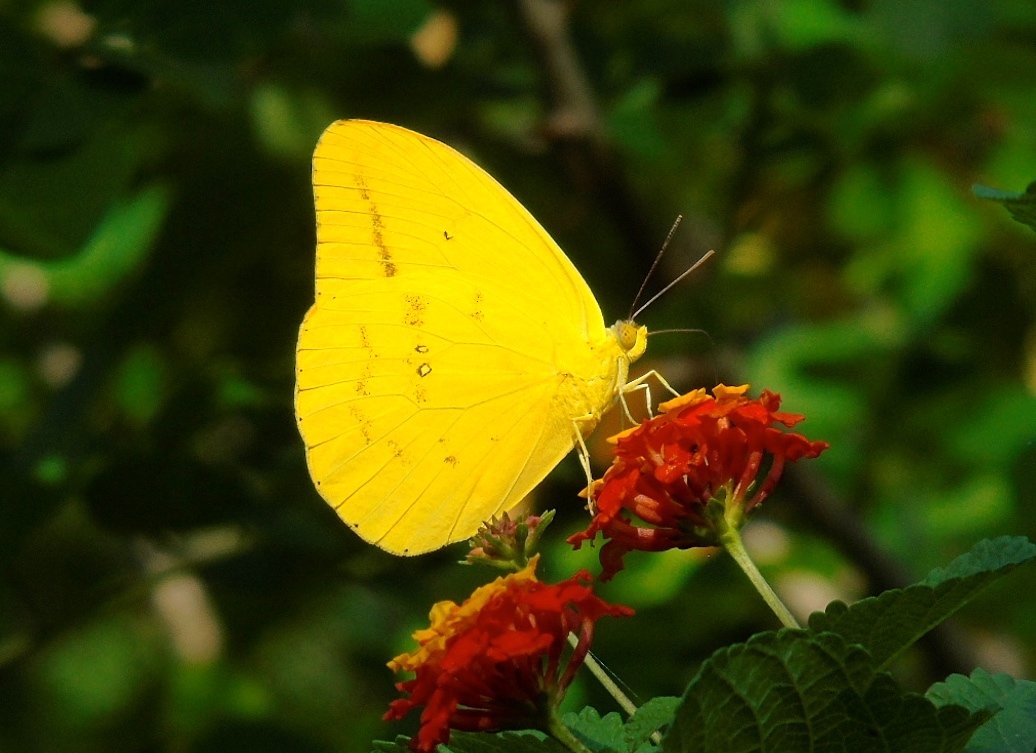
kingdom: Animalia
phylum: Arthropoda
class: Insecta
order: Lepidoptera
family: Pieridae
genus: Phoebis
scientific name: Phoebis agarithe
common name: Large orange sulphur
